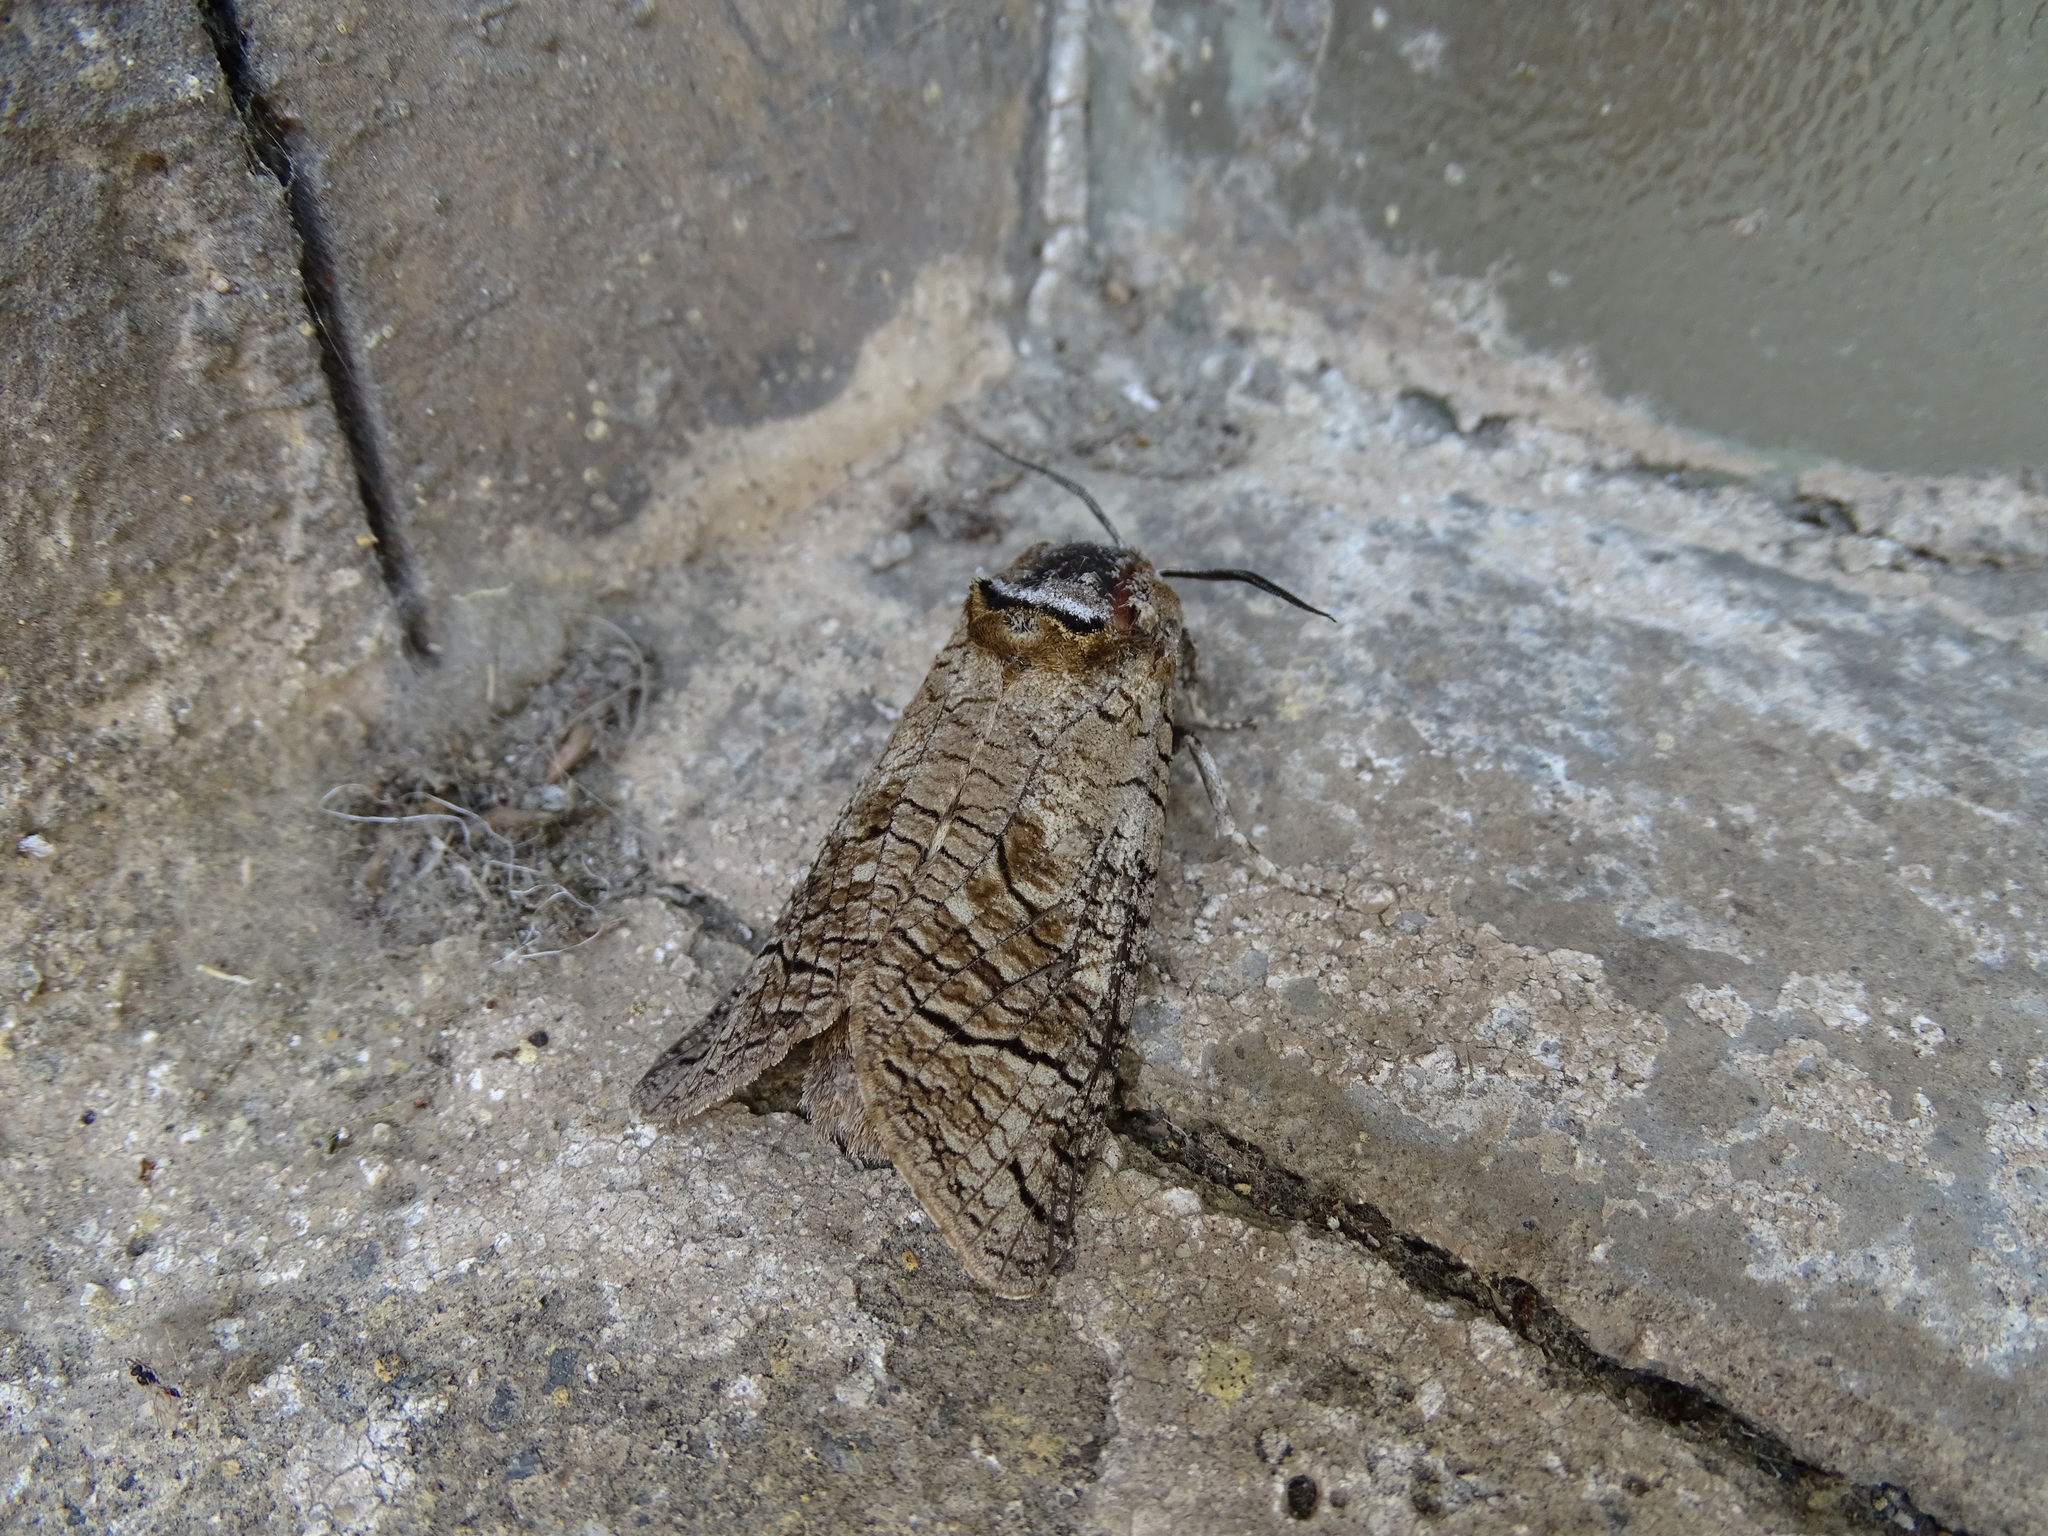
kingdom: Animalia
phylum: Arthropoda
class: Insecta
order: Lepidoptera
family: Cossidae
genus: Cossus
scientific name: Cossus cossus
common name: Goat moth
